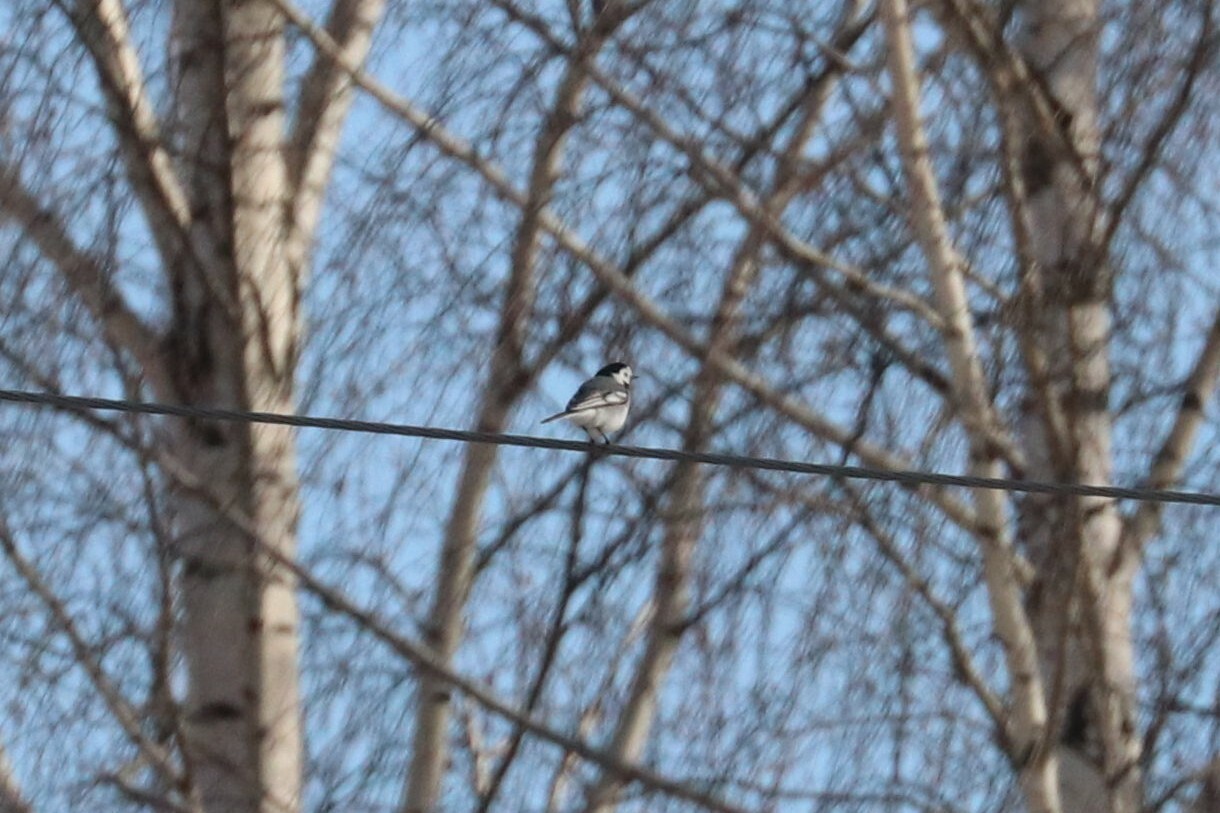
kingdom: Animalia
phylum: Chordata
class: Aves
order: Passeriformes
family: Motacillidae
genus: Motacilla
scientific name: Motacilla alba
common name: White wagtail
